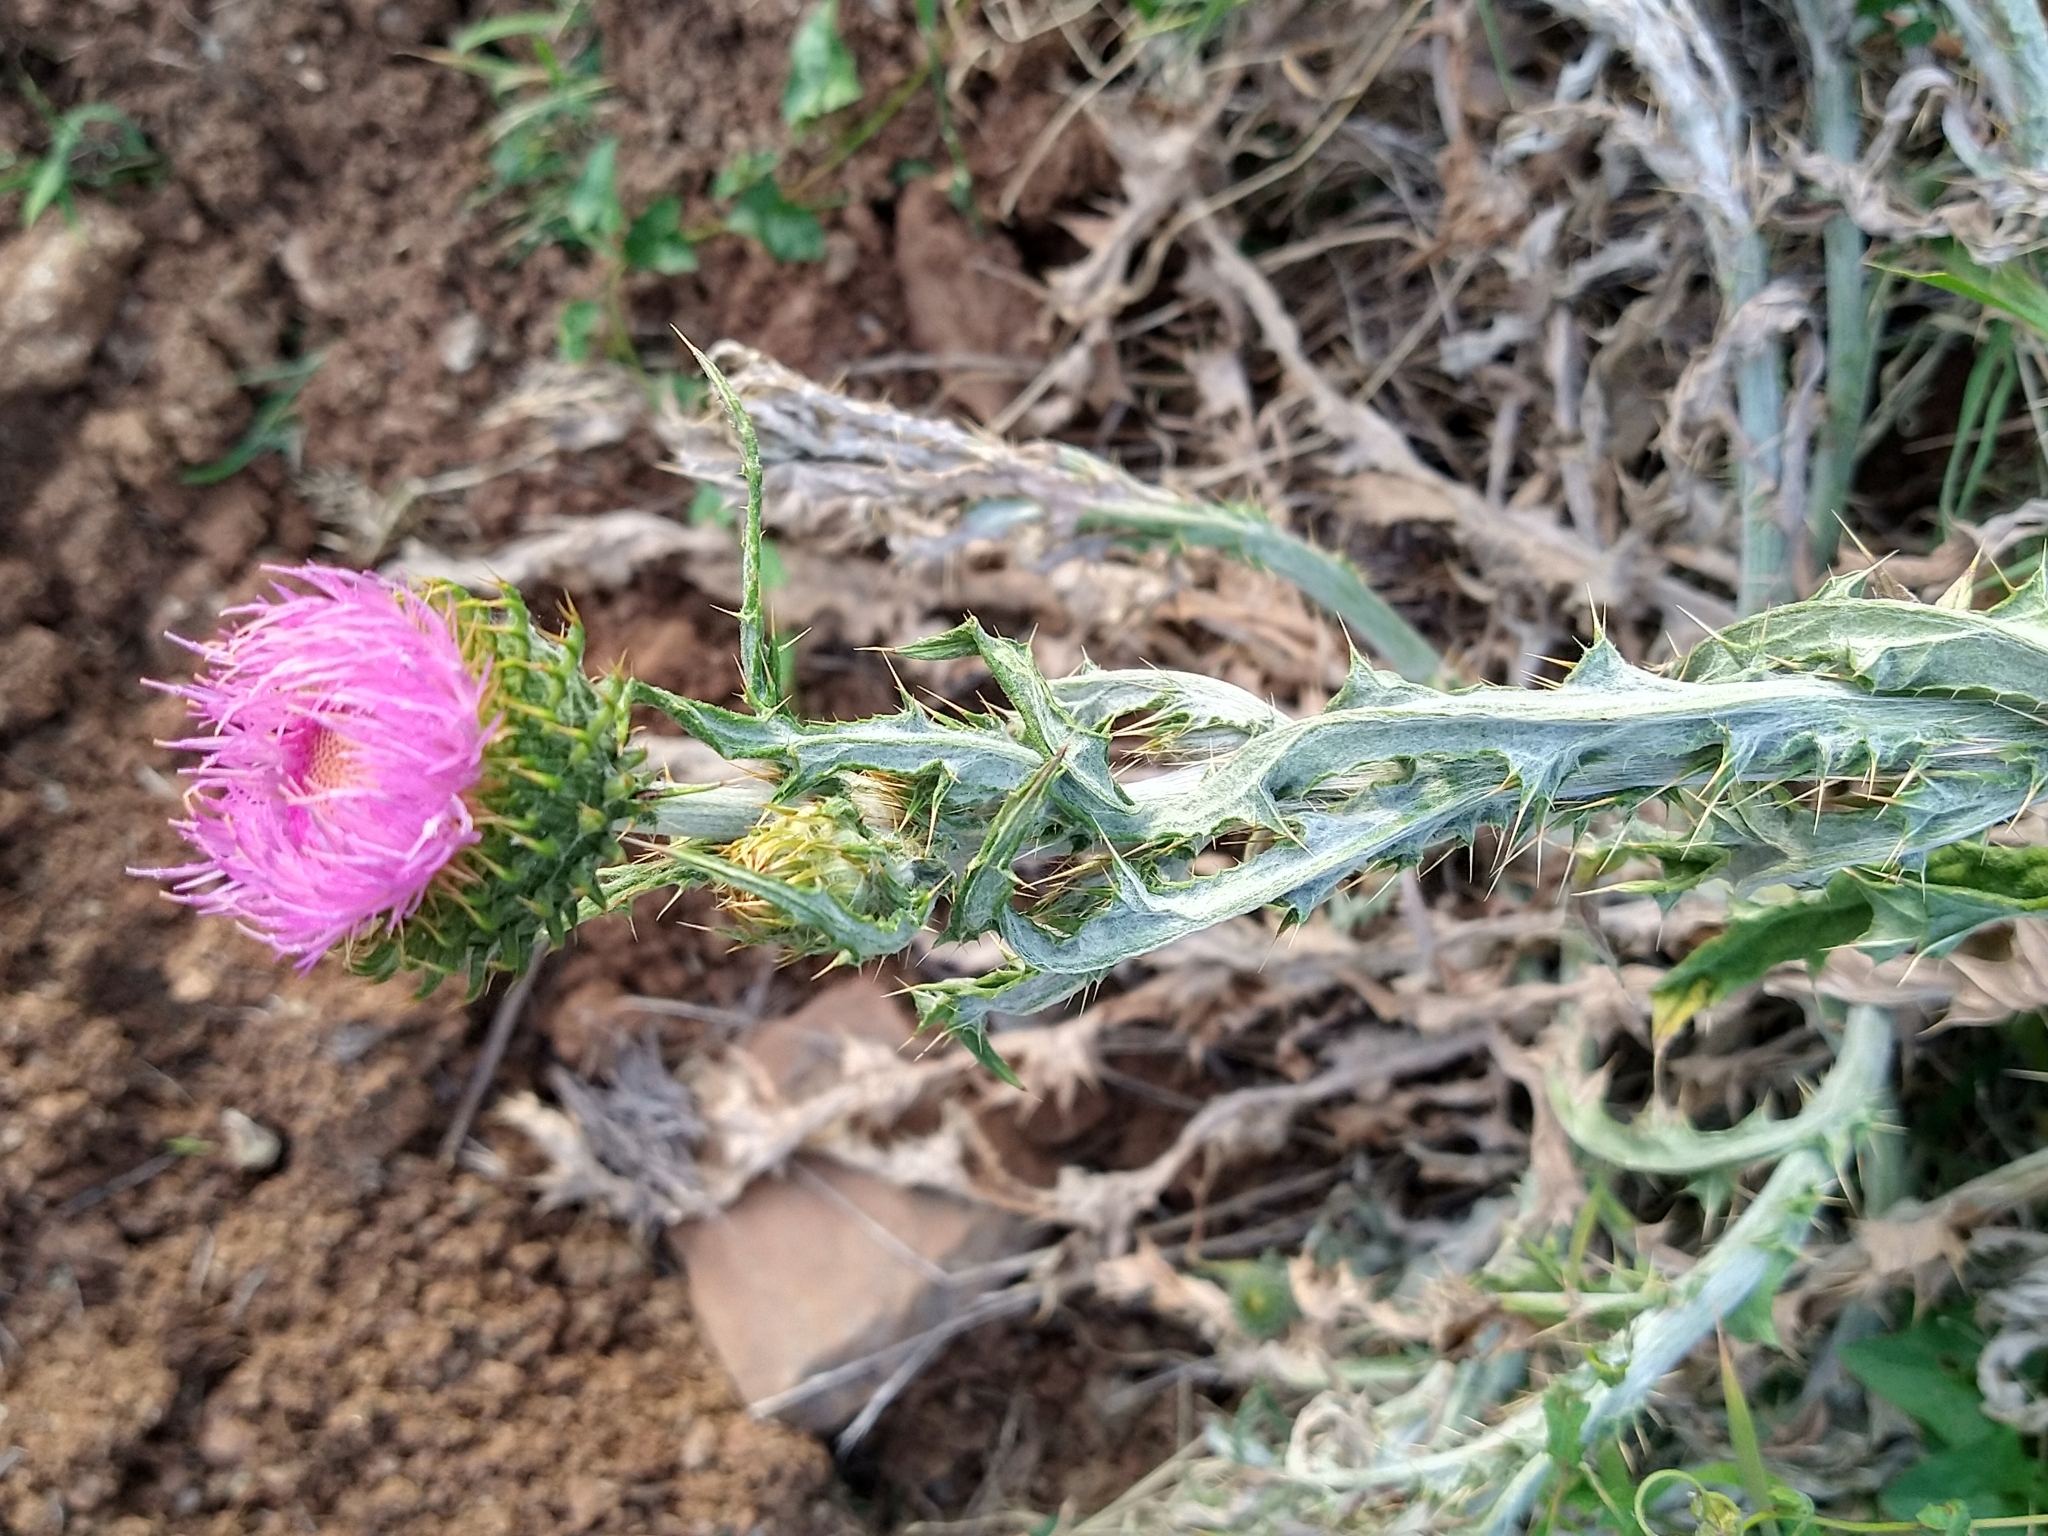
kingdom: Plantae
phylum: Tracheophyta
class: Magnoliopsida
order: Asterales
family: Asteraceae
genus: Cirsium
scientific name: Cirsium occidentale
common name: Western thistle
